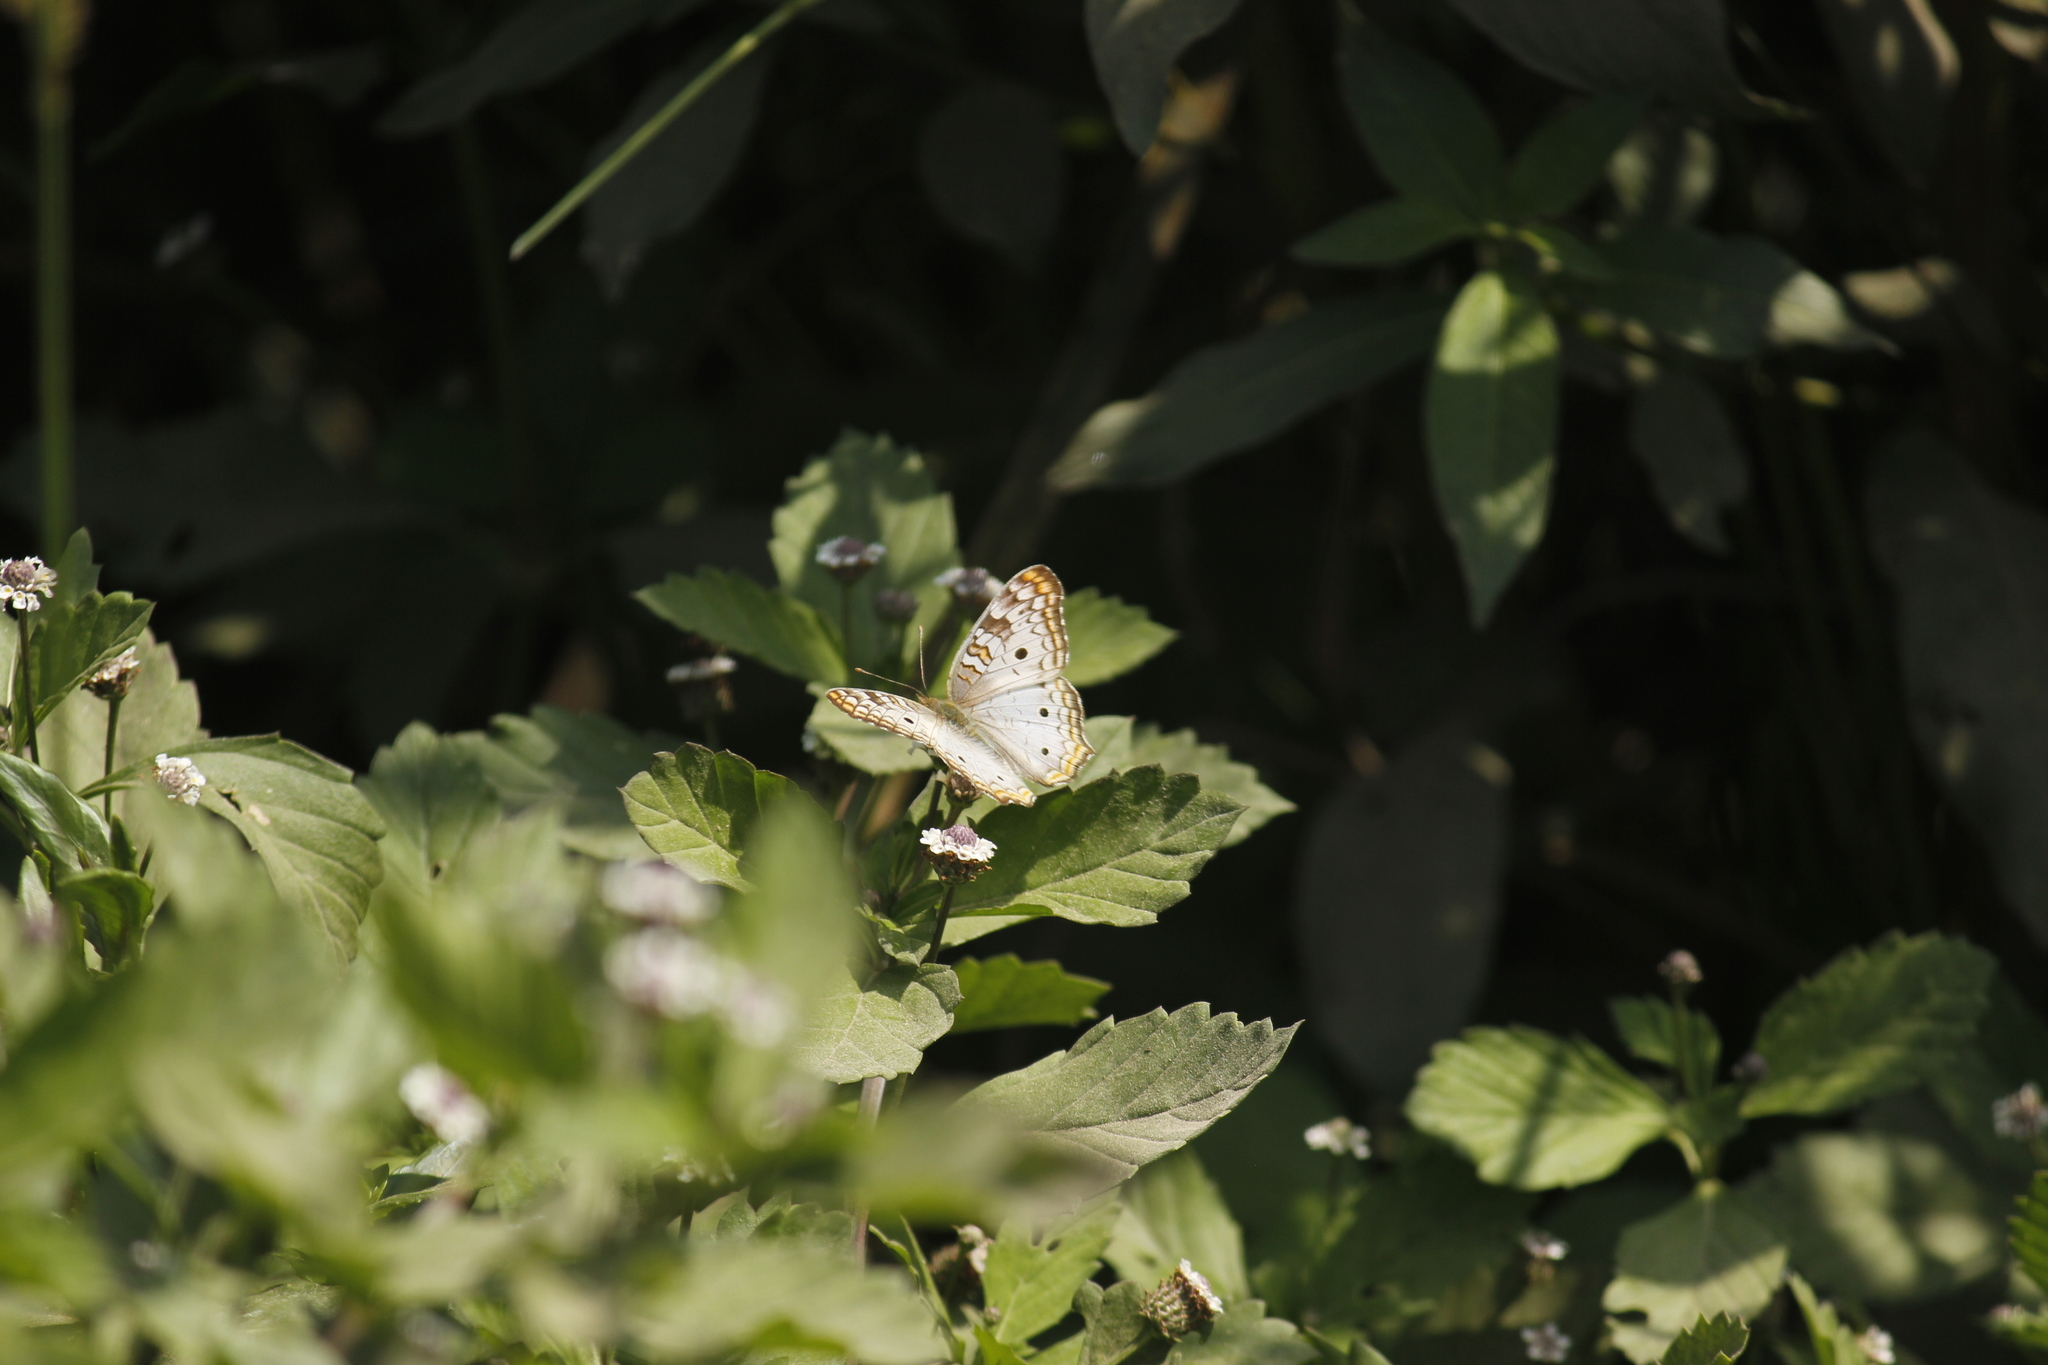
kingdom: Animalia
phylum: Arthropoda
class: Insecta
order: Lepidoptera
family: Nymphalidae
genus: Anartia
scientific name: Anartia jatrophae
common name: White peacock
